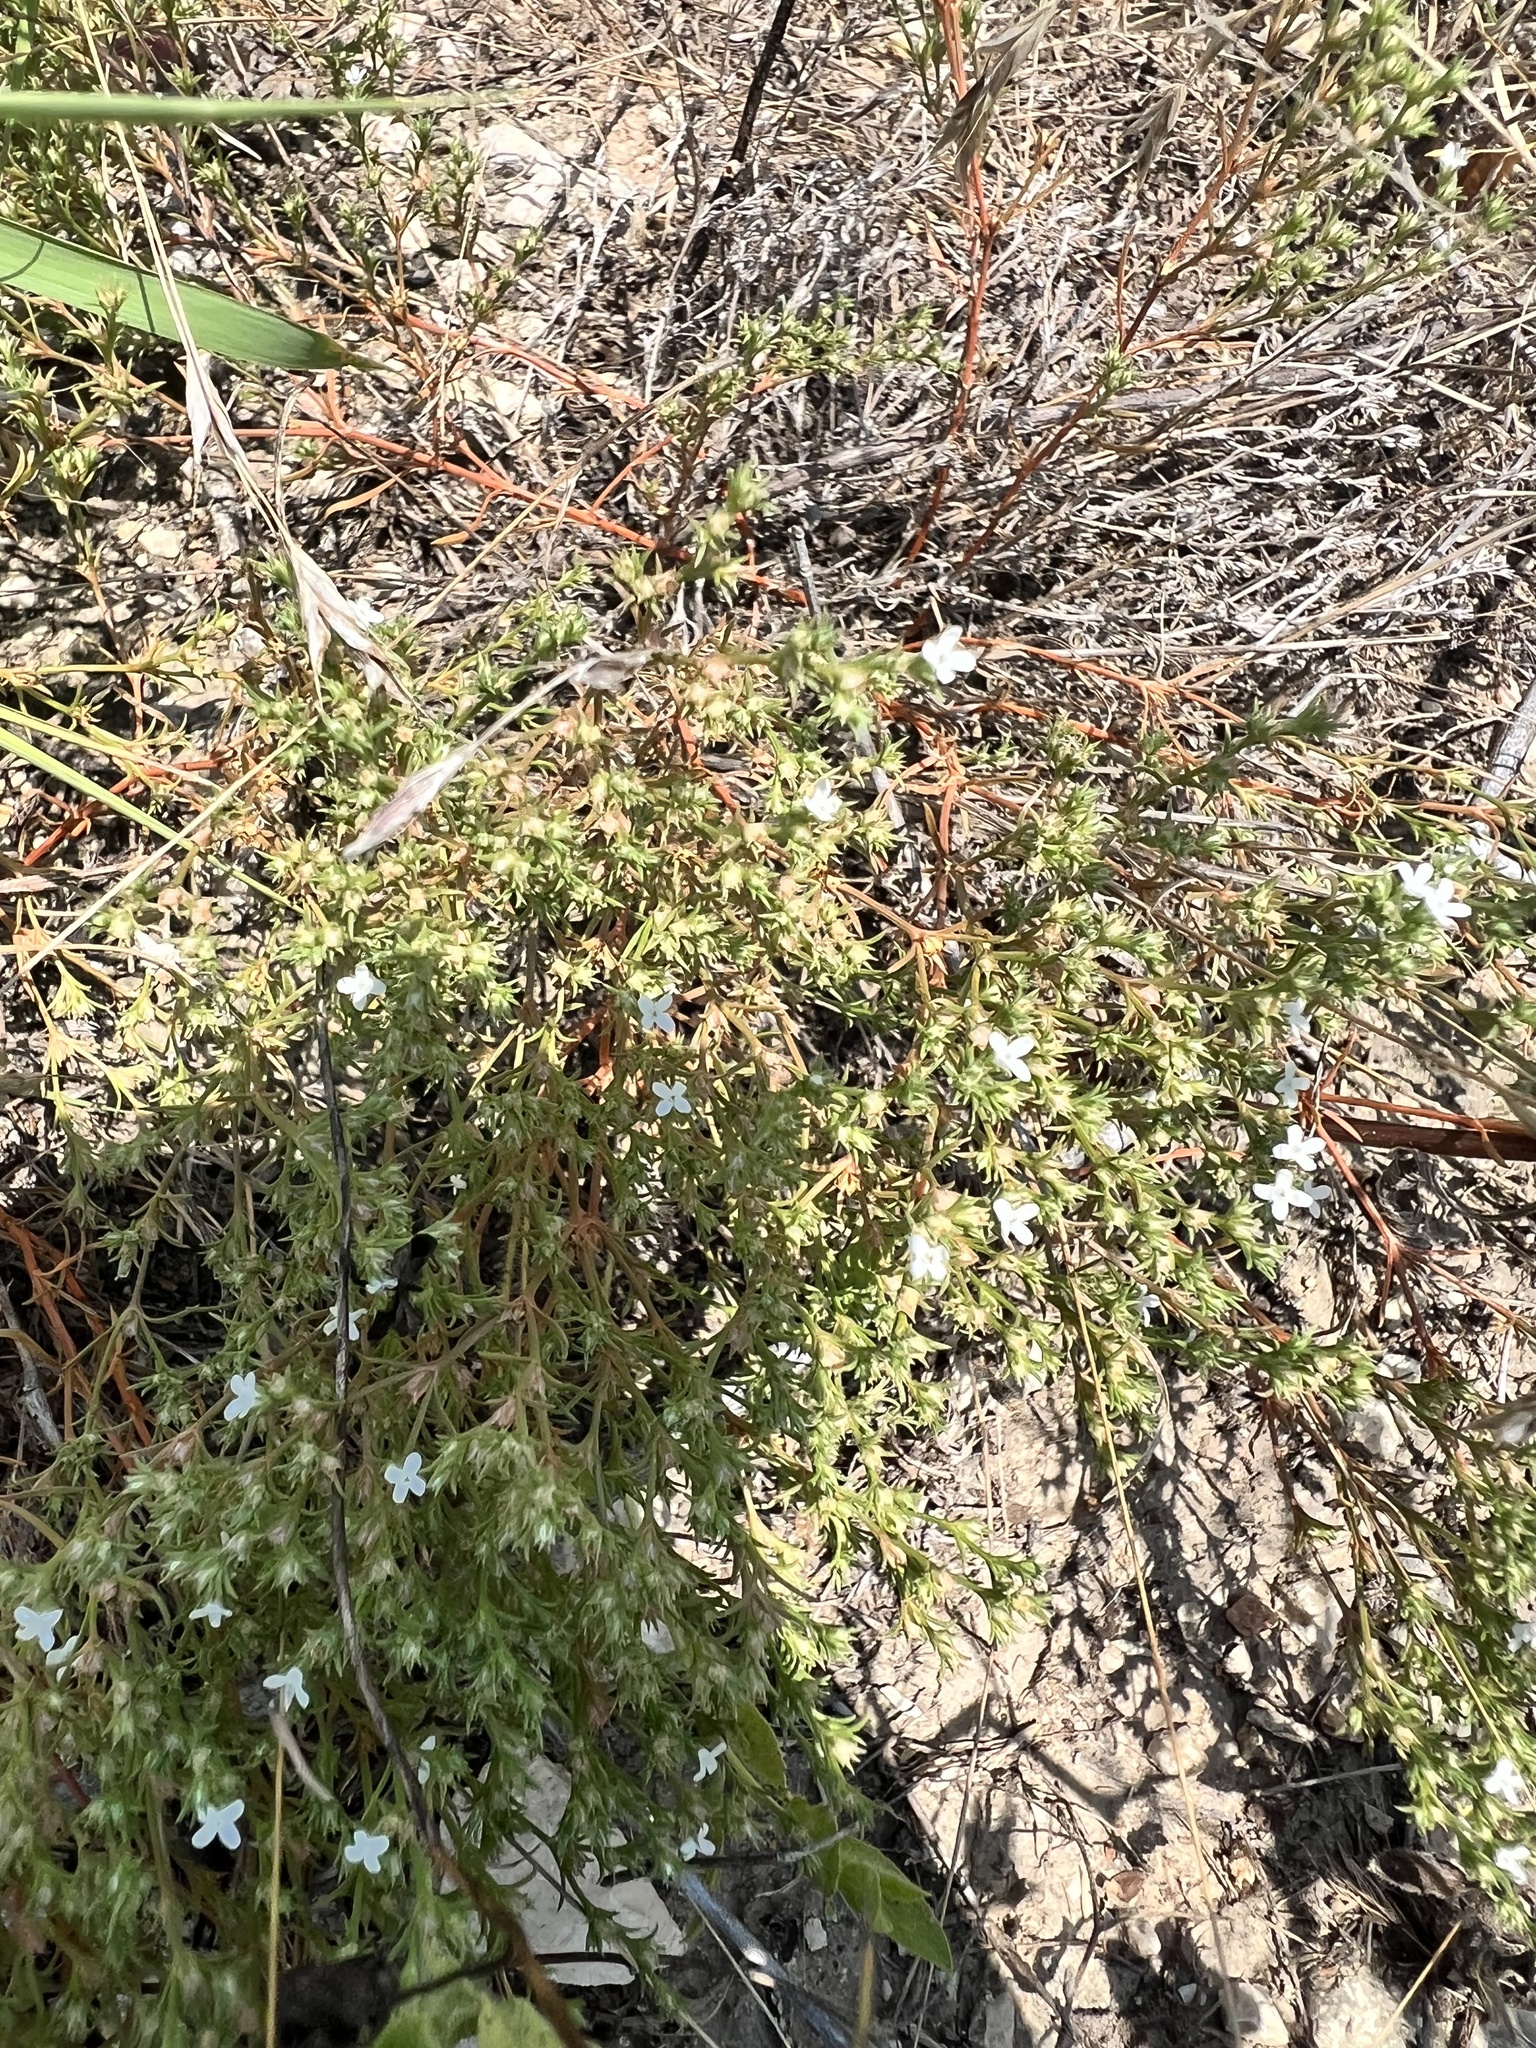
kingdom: Plantae
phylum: Tracheophyta
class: Magnoliopsida
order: Lamiales
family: Tetrachondraceae
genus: Polypremum
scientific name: Polypremum procumbens
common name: Juniper-leaf
